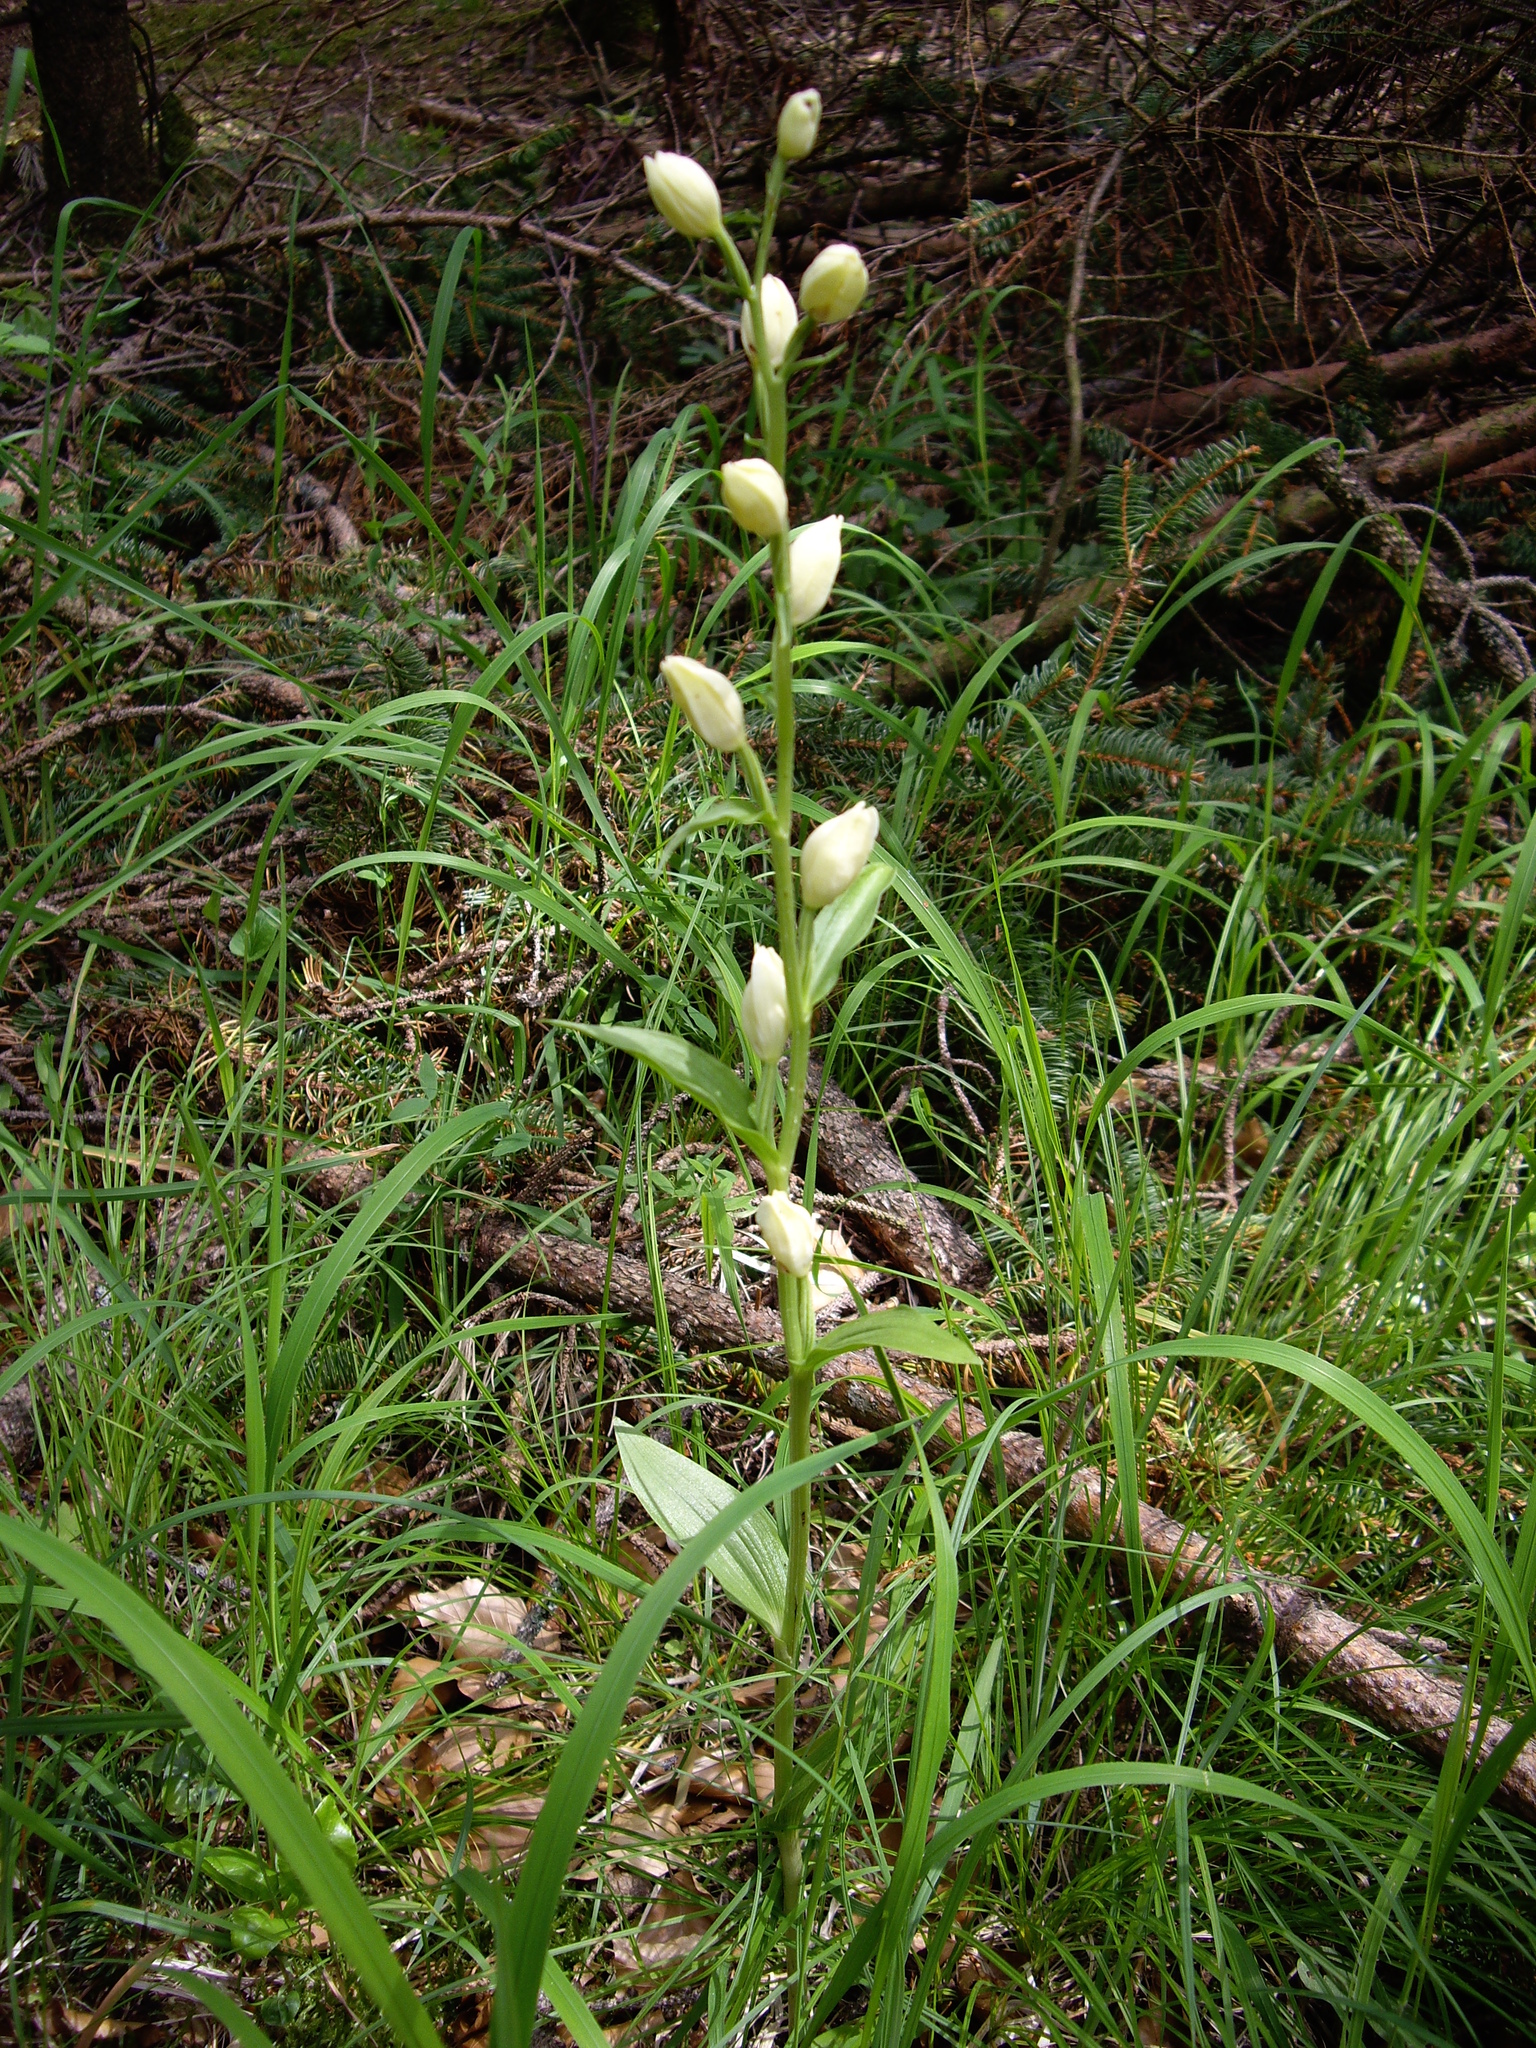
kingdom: Plantae
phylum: Tracheophyta
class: Liliopsida
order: Asparagales
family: Orchidaceae
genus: Cephalanthera
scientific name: Cephalanthera damasonium
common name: White helleborine
